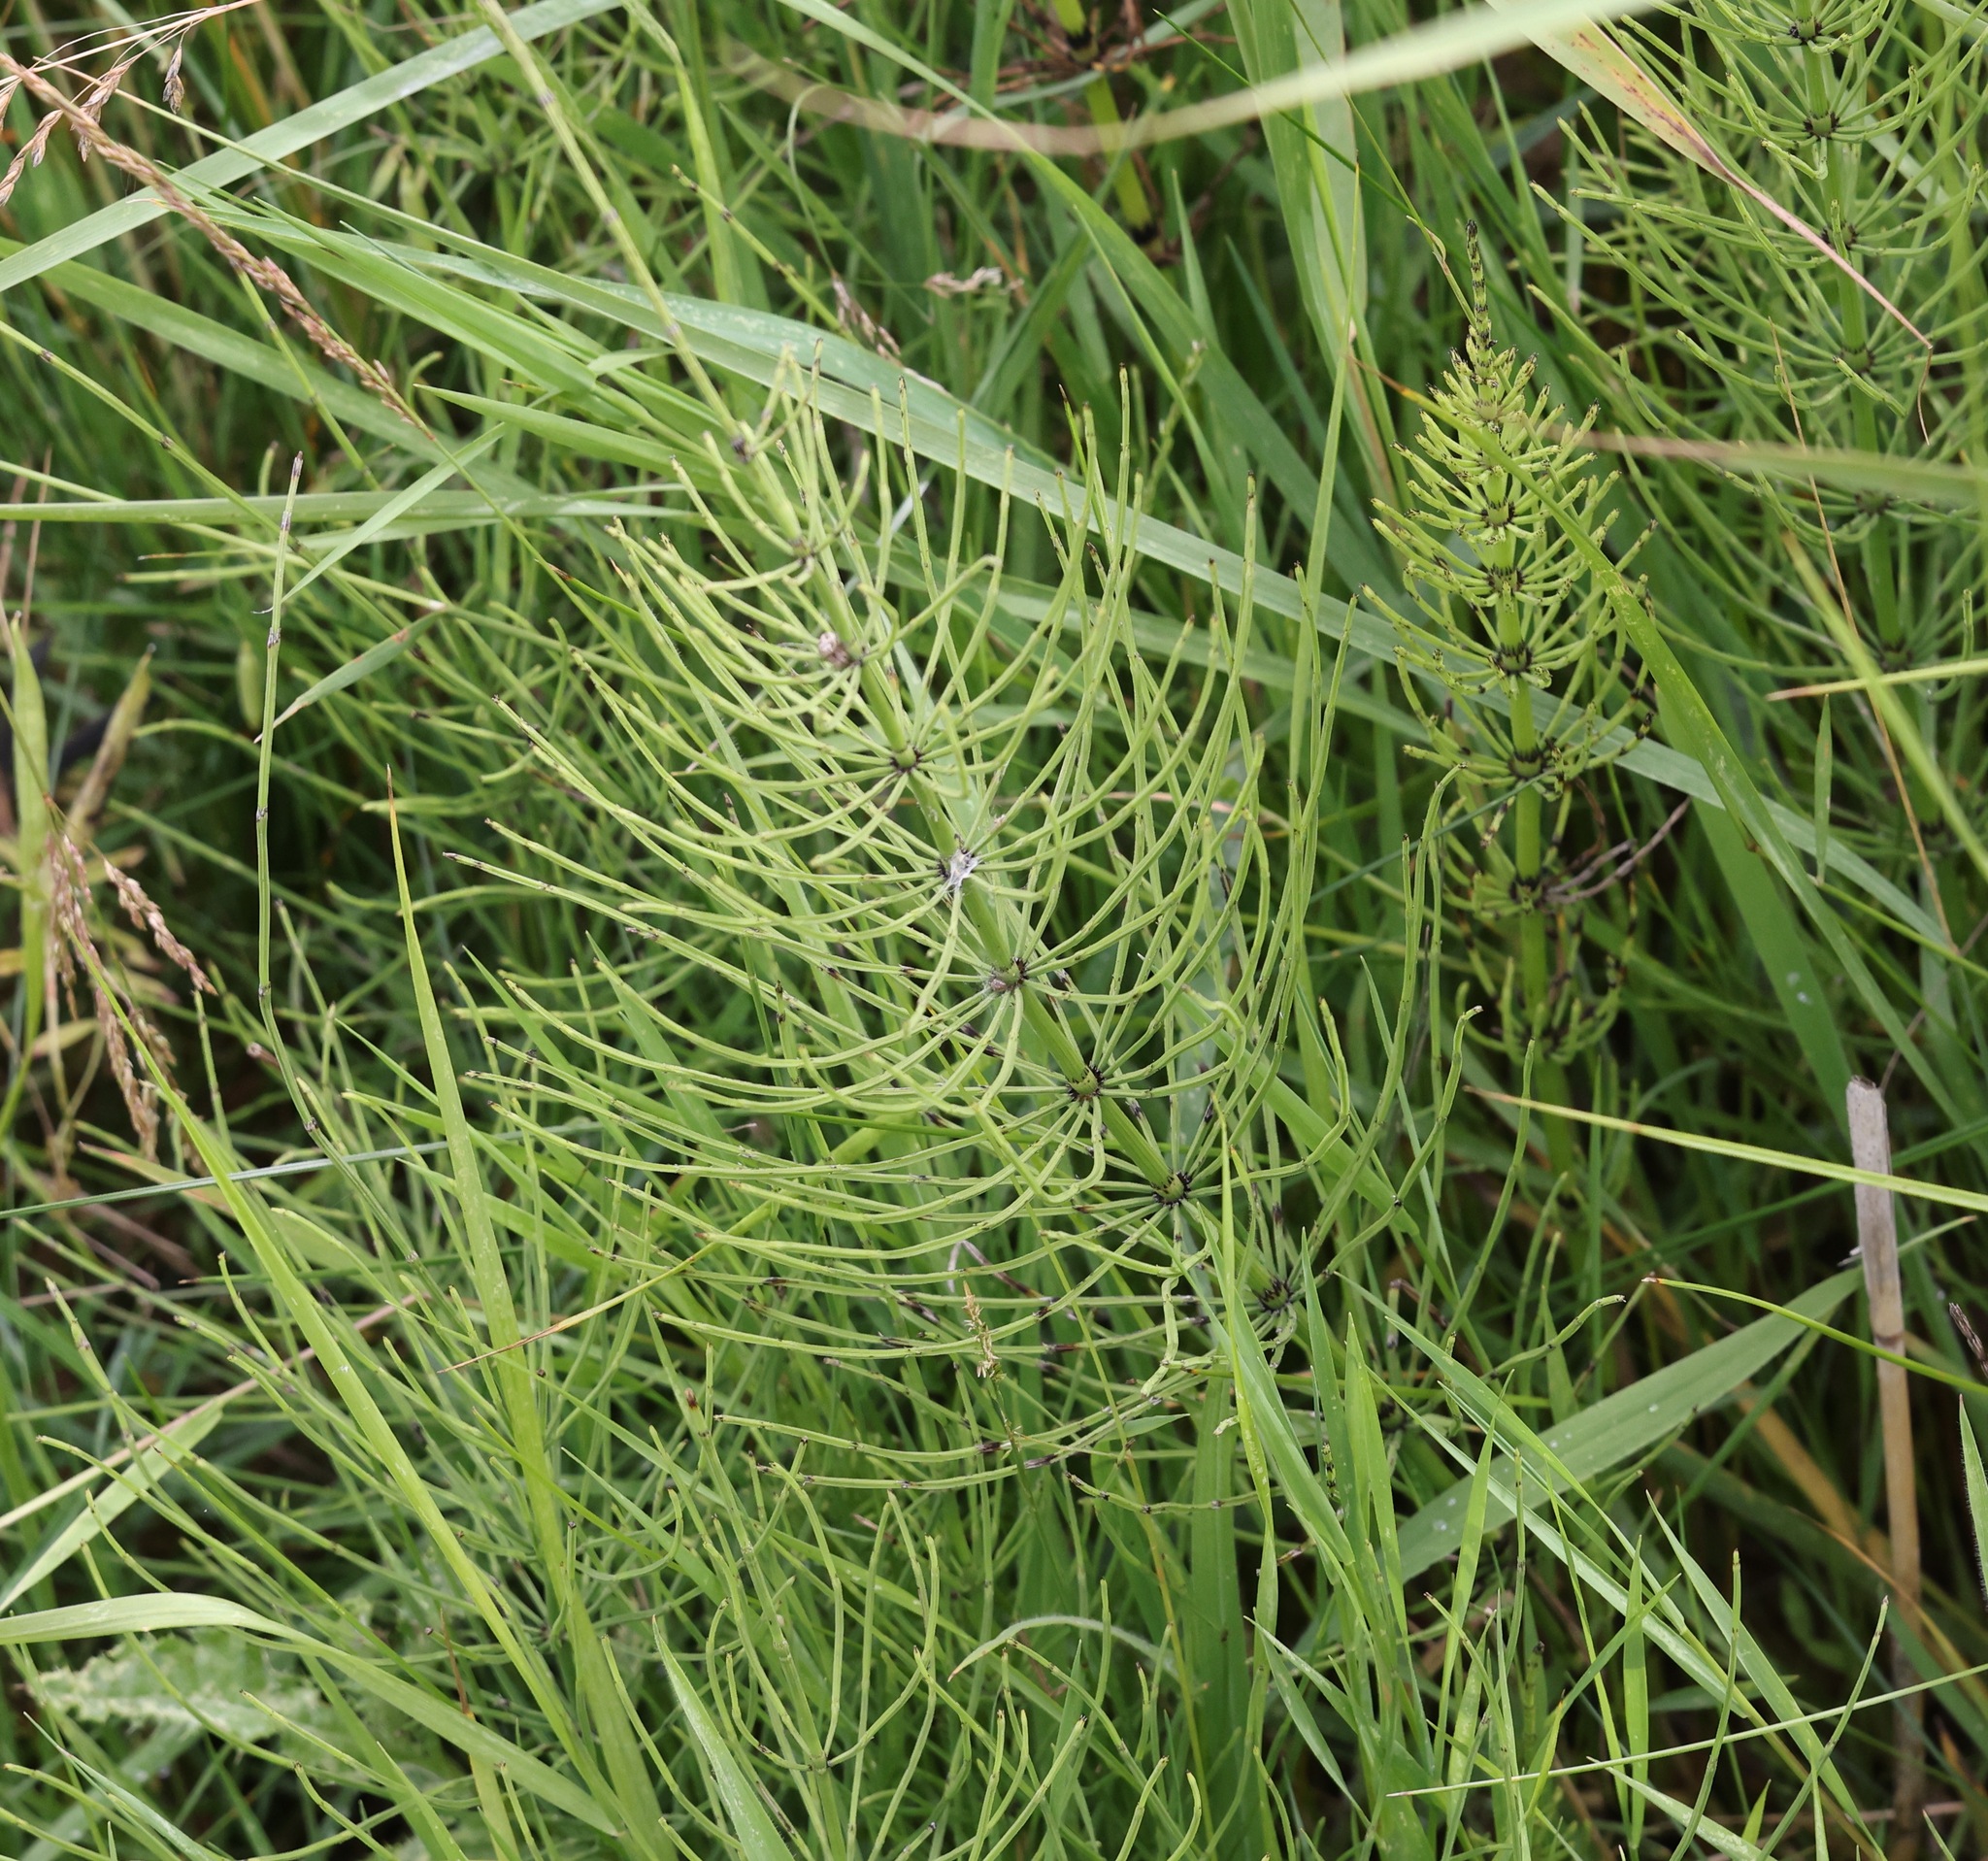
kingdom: Plantae
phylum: Tracheophyta
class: Polypodiopsida
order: Equisetales
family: Equisetaceae
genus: Equisetum
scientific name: Equisetum arvense
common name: Field horsetail
